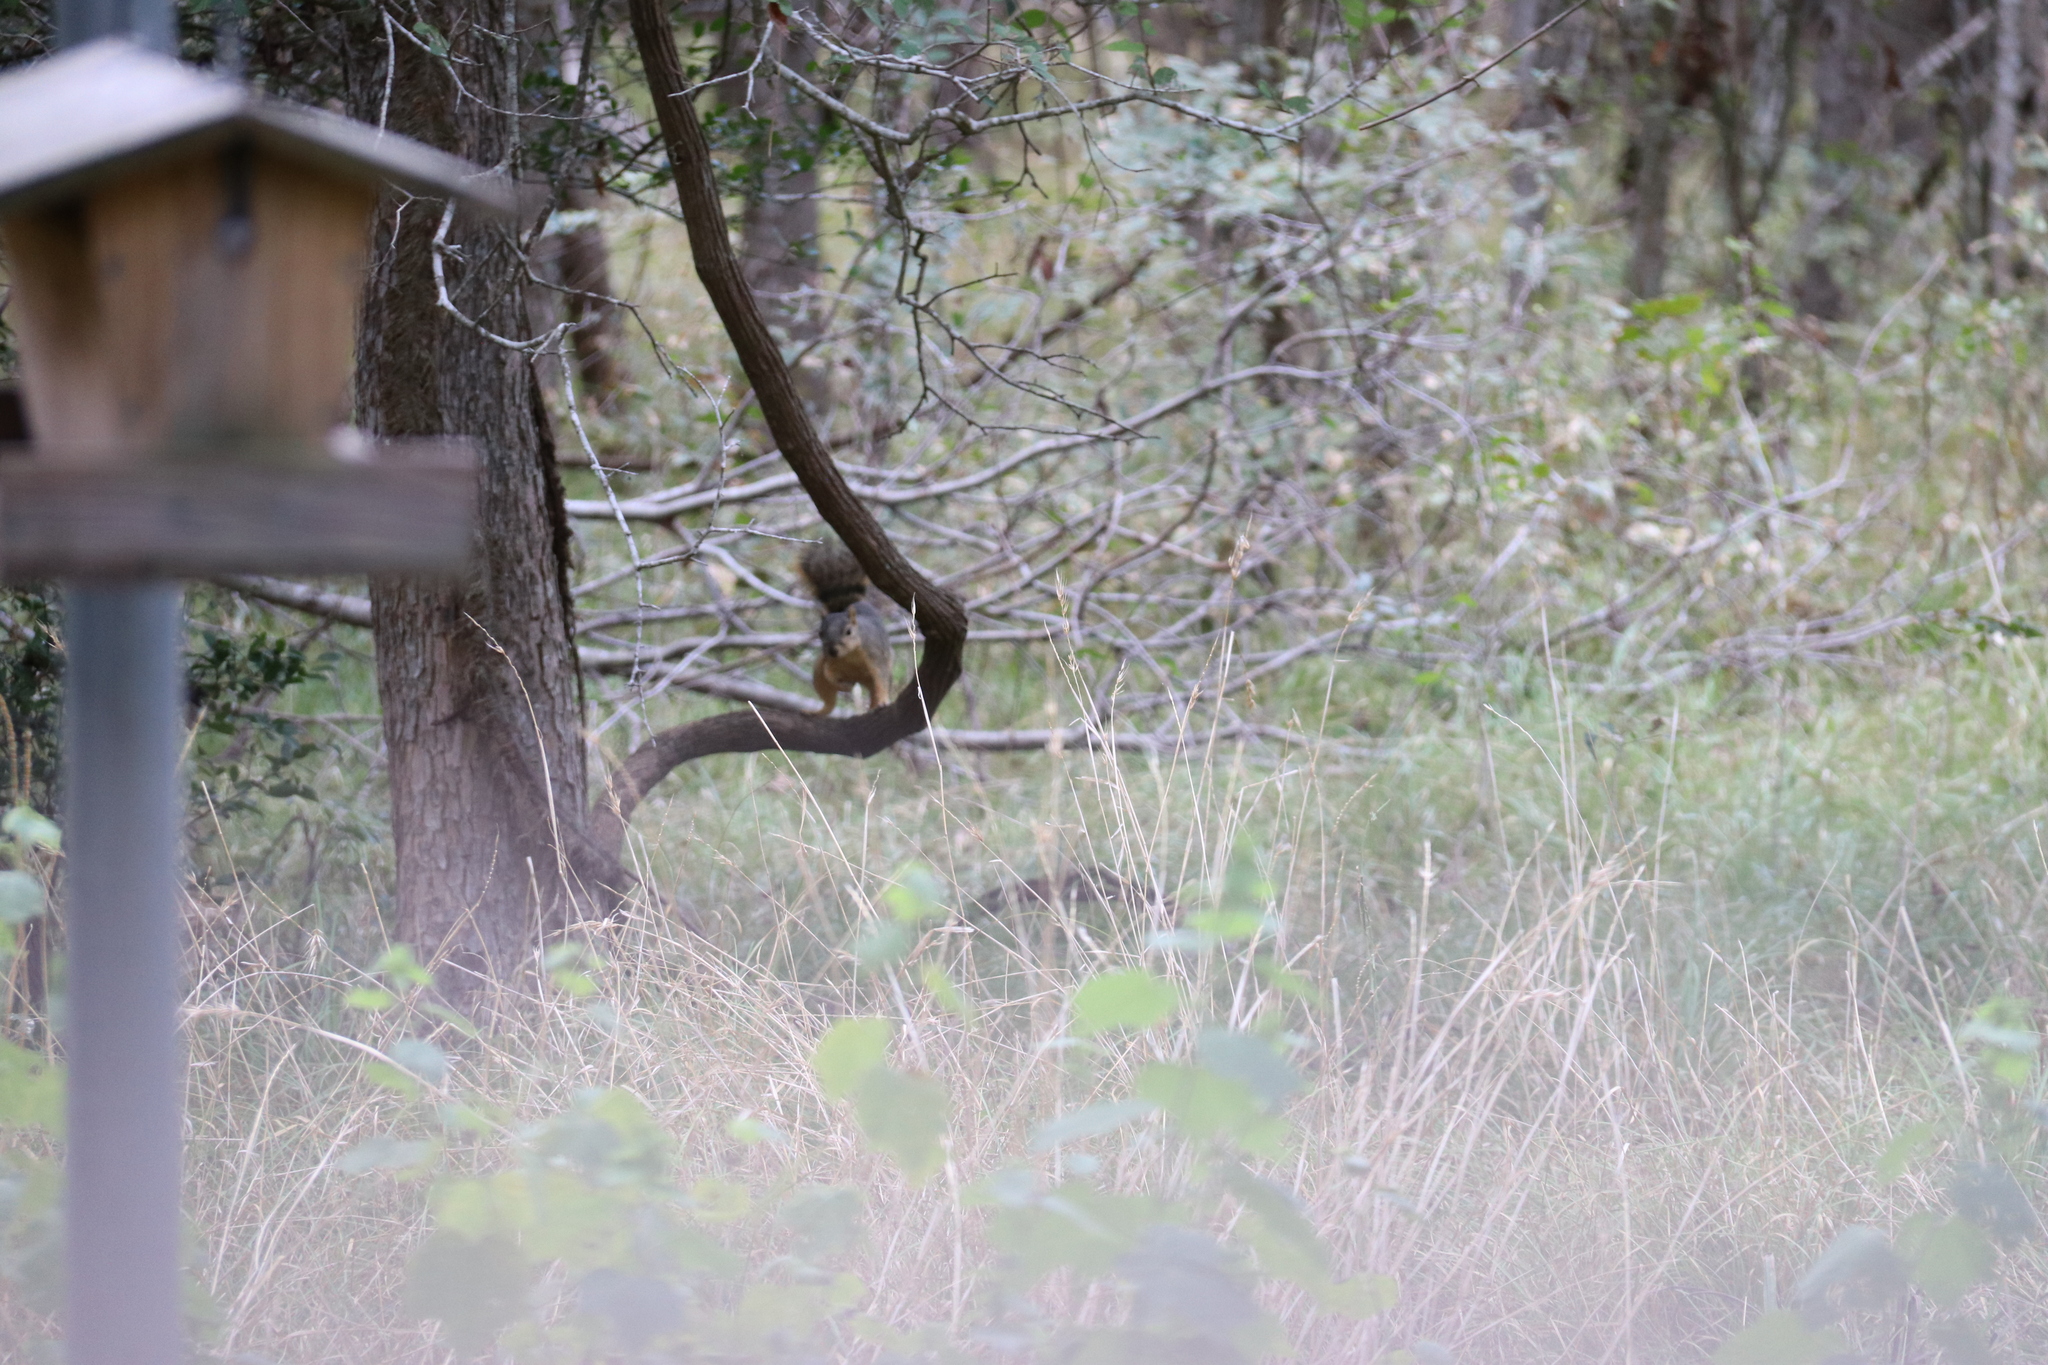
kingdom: Animalia
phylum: Chordata
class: Mammalia
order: Rodentia
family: Sciuridae
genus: Sciurus
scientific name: Sciurus niger
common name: Fox squirrel
